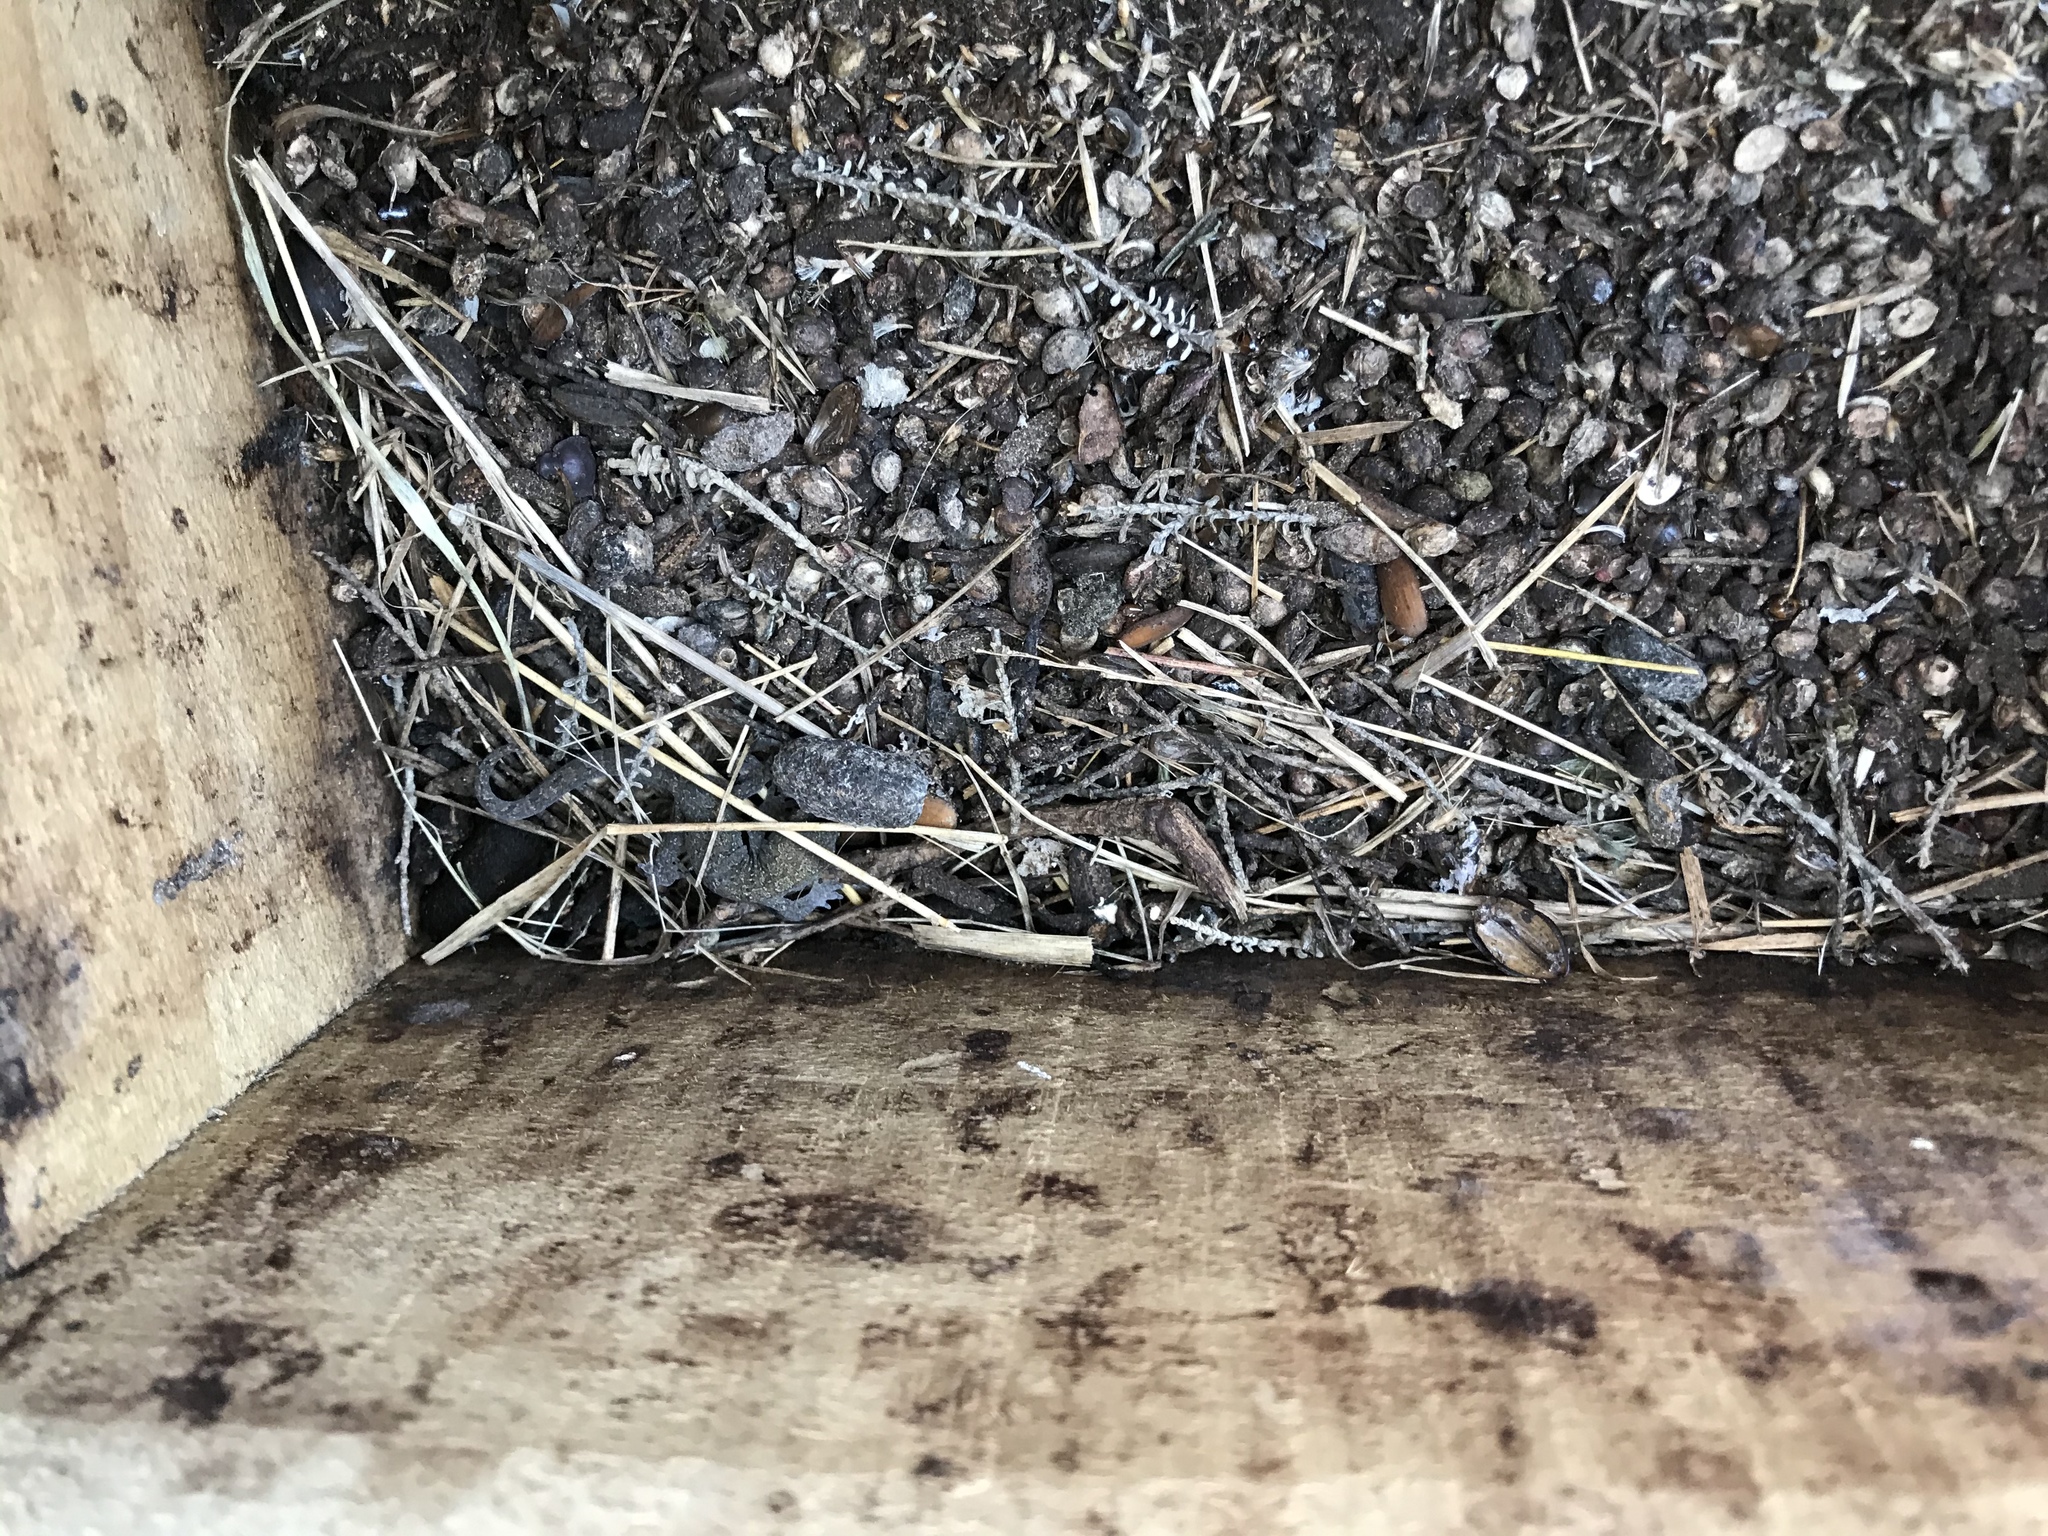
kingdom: Animalia
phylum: Chordata
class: Squamata
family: Diplodactylidae
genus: Woodworthia
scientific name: Woodworthia maculata
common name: Raukawa gecko
